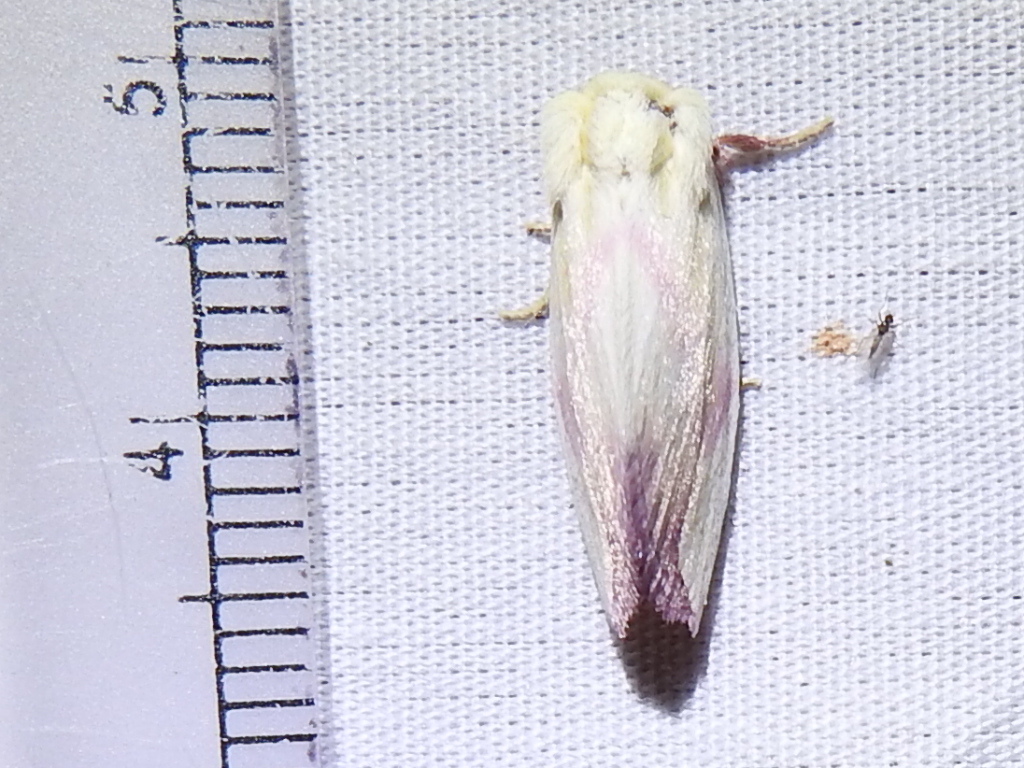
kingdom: Animalia
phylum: Arthropoda
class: Insecta
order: Lepidoptera
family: Noctuidae
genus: Thurberiphaga
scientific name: Thurberiphaga diffusa
